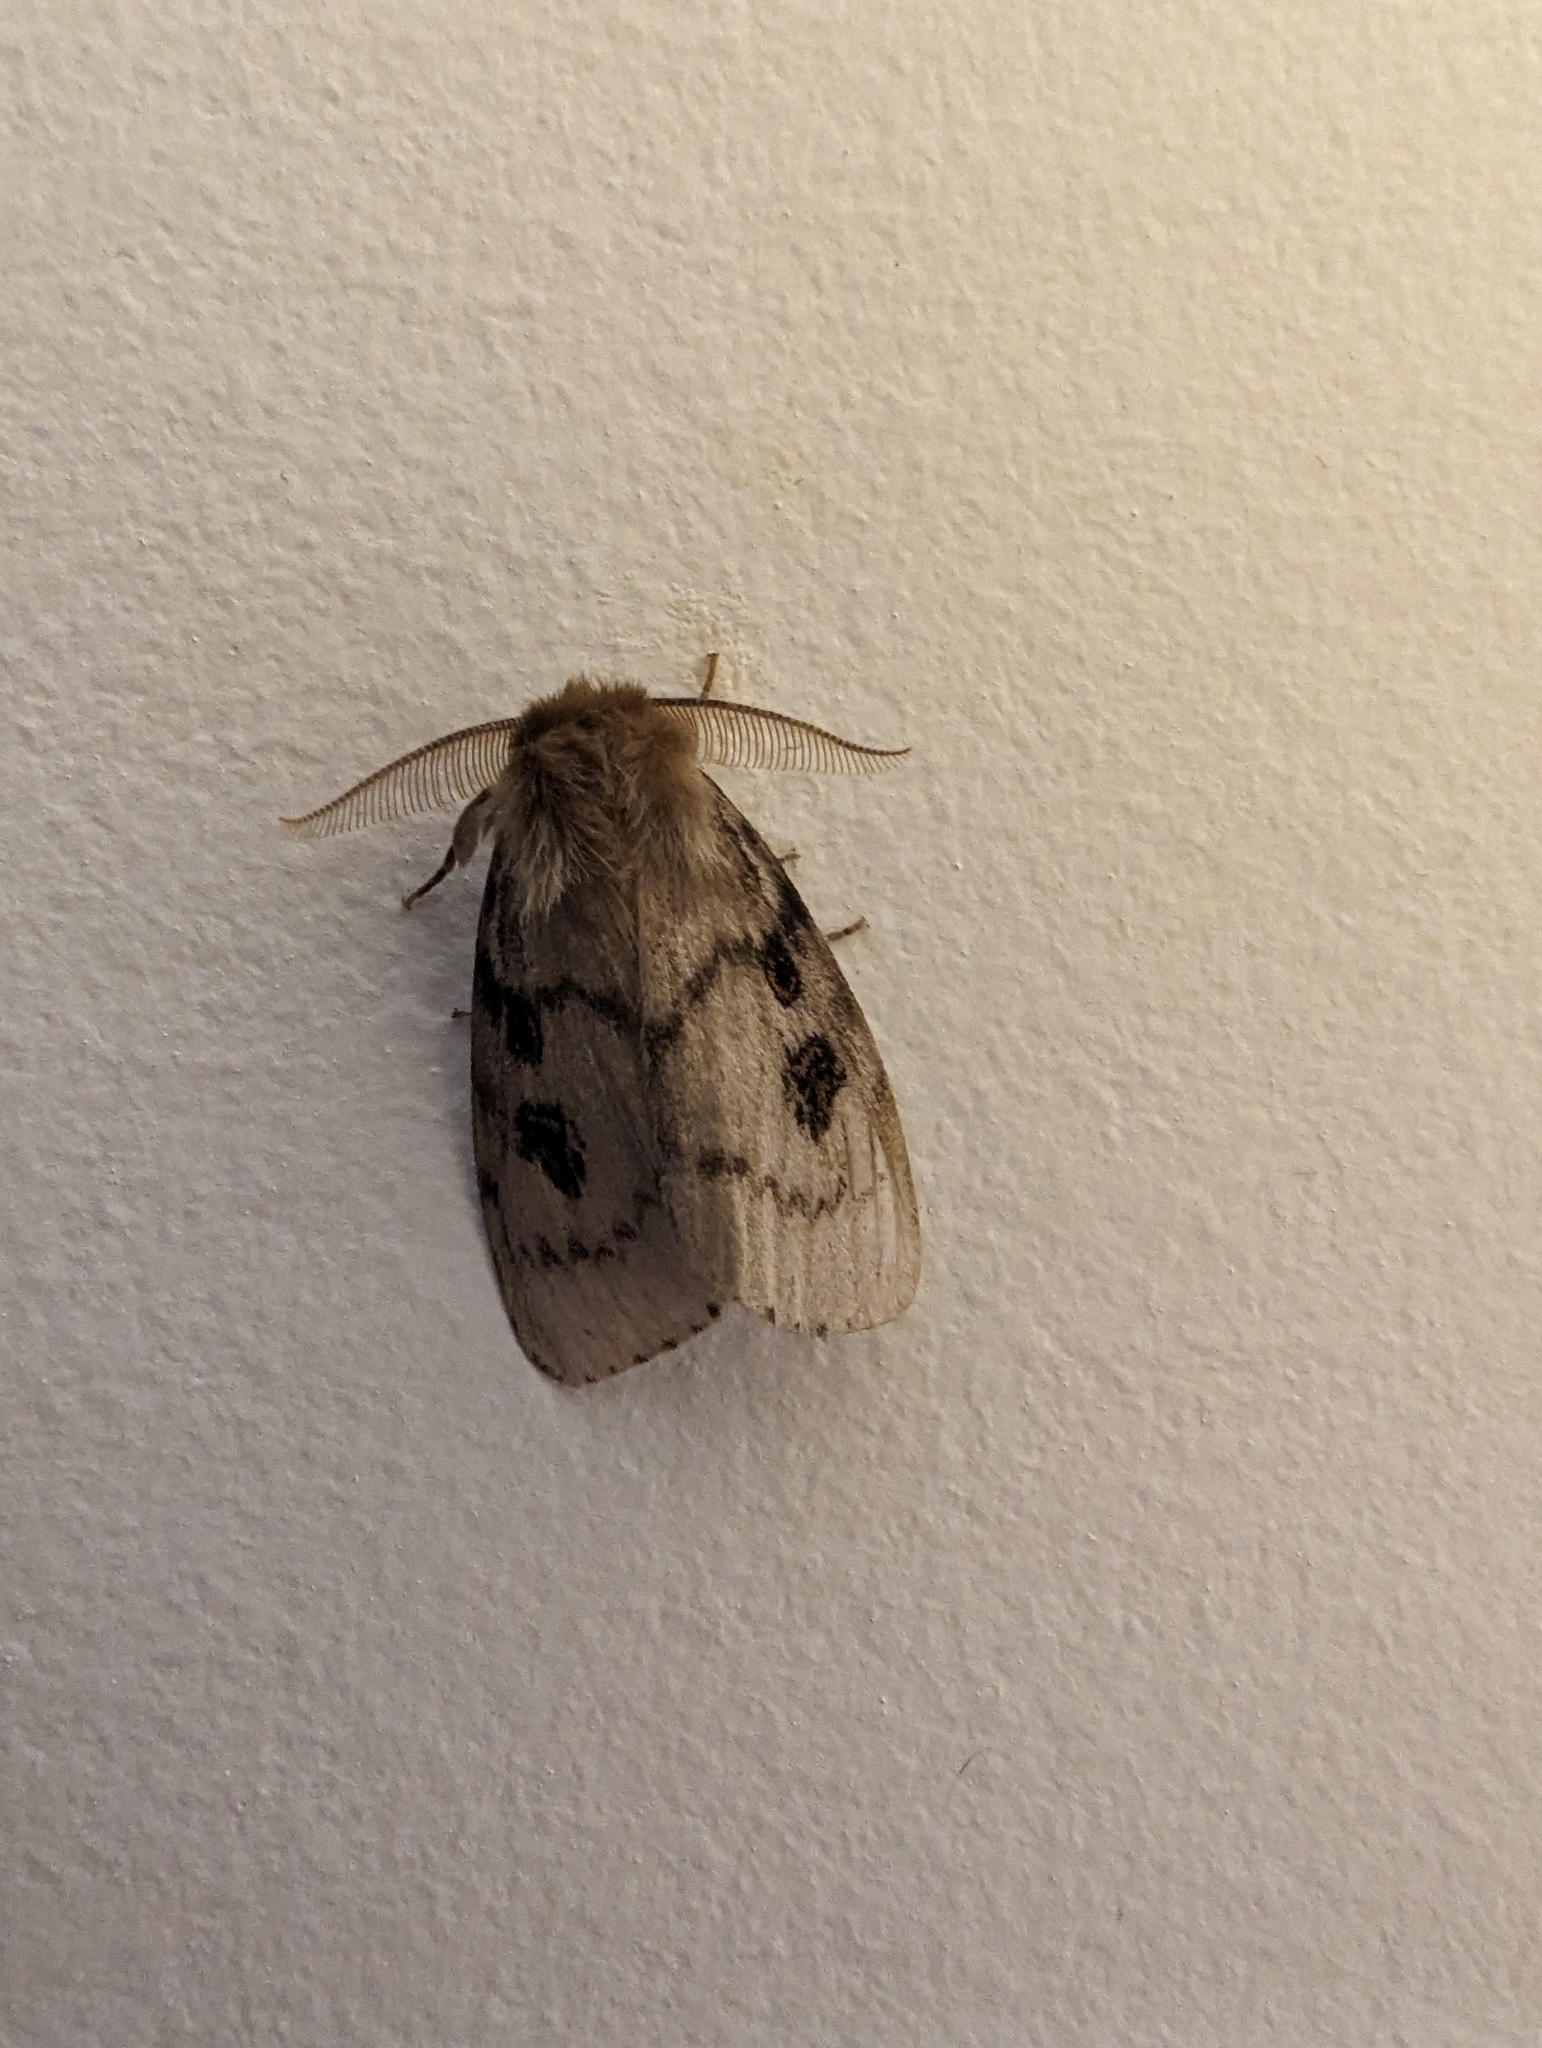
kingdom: Animalia
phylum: Arthropoda
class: Insecta
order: Lepidoptera
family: Erebidae
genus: Leptocneria
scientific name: Leptocneria reducta
